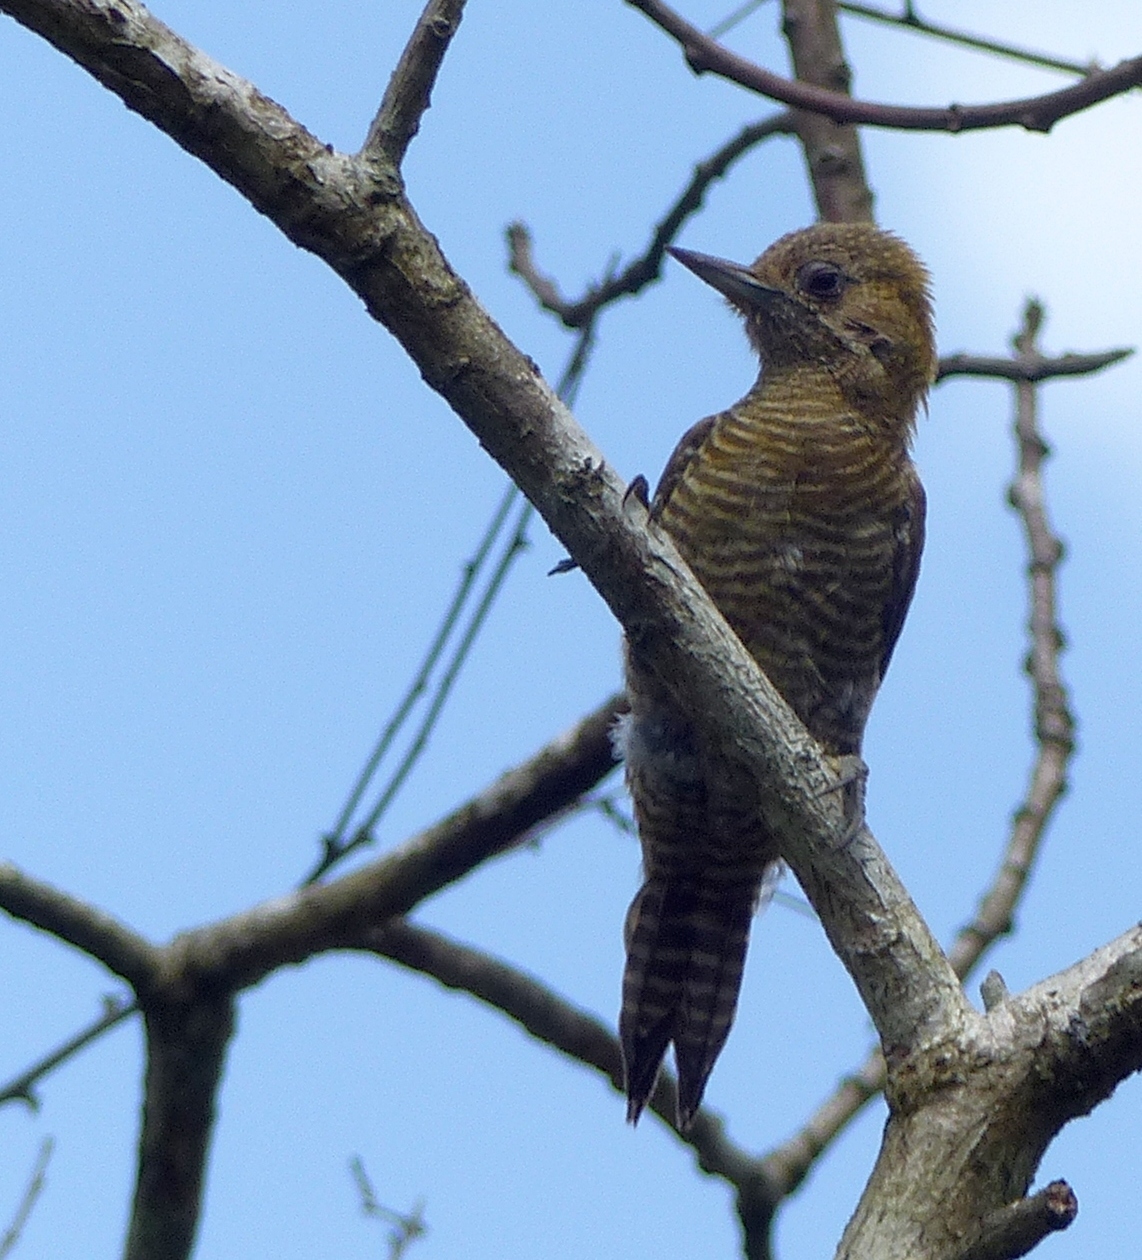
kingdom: Animalia
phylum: Chordata
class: Aves
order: Piciformes
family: Picidae
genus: Veniliornis
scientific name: Veniliornis passerinus
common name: Little woodpecker
